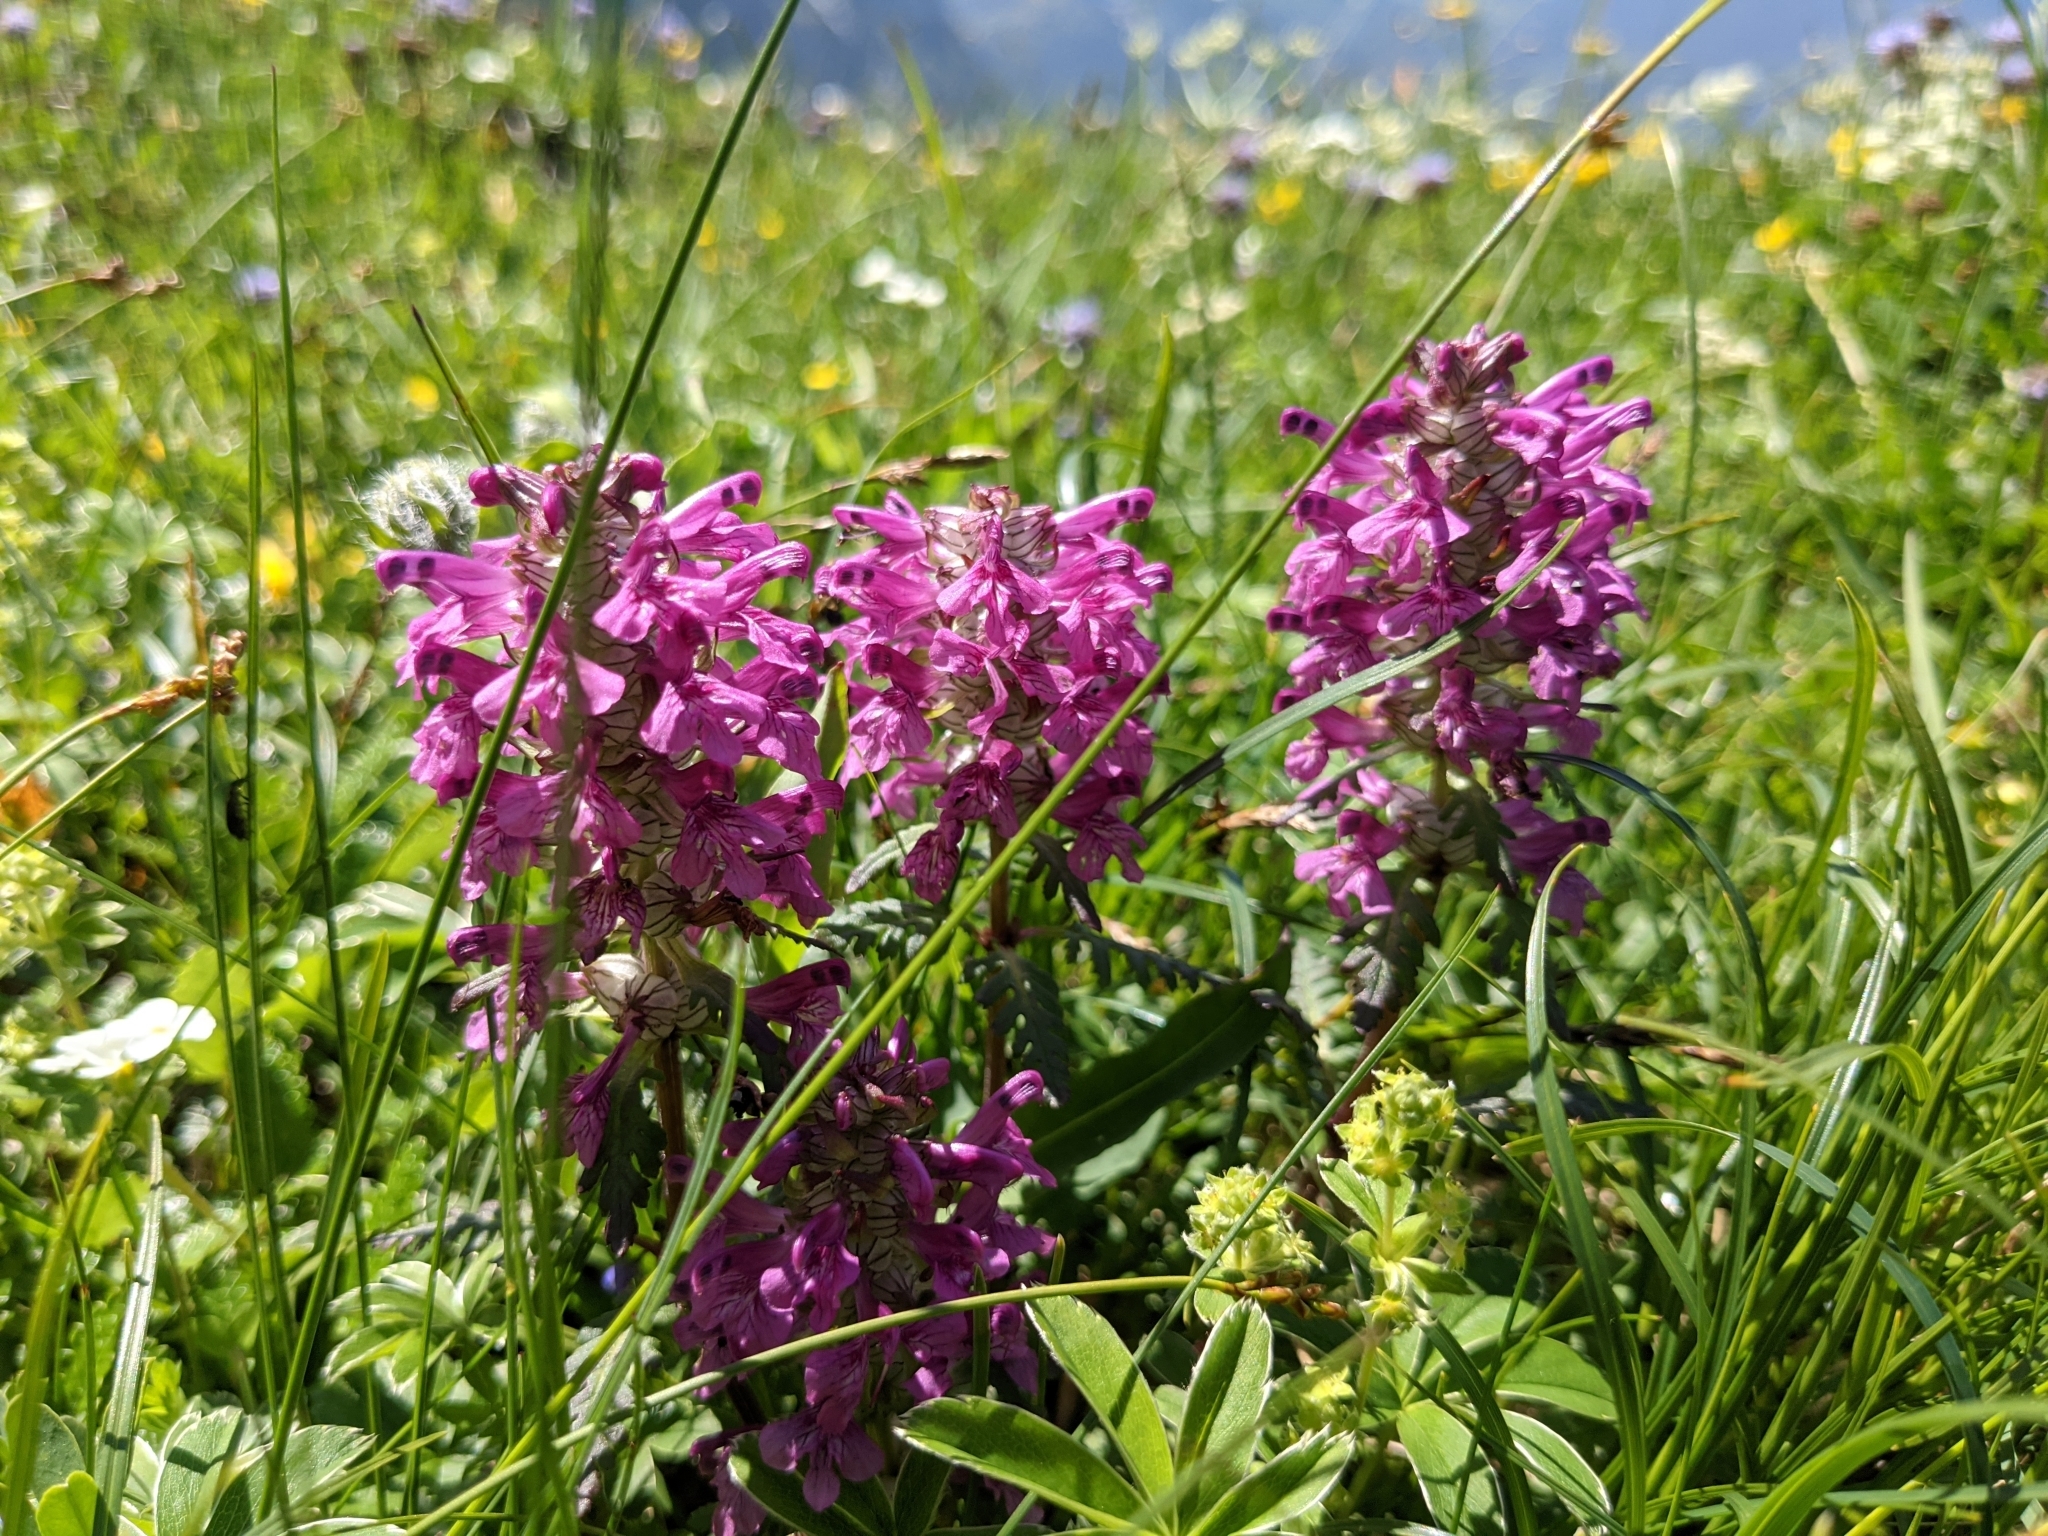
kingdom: Plantae
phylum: Tracheophyta
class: Magnoliopsida
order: Lamiales
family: Orobanchaceae
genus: Pedicularis
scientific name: Pedicularis verticillata
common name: Whorled lousewort
